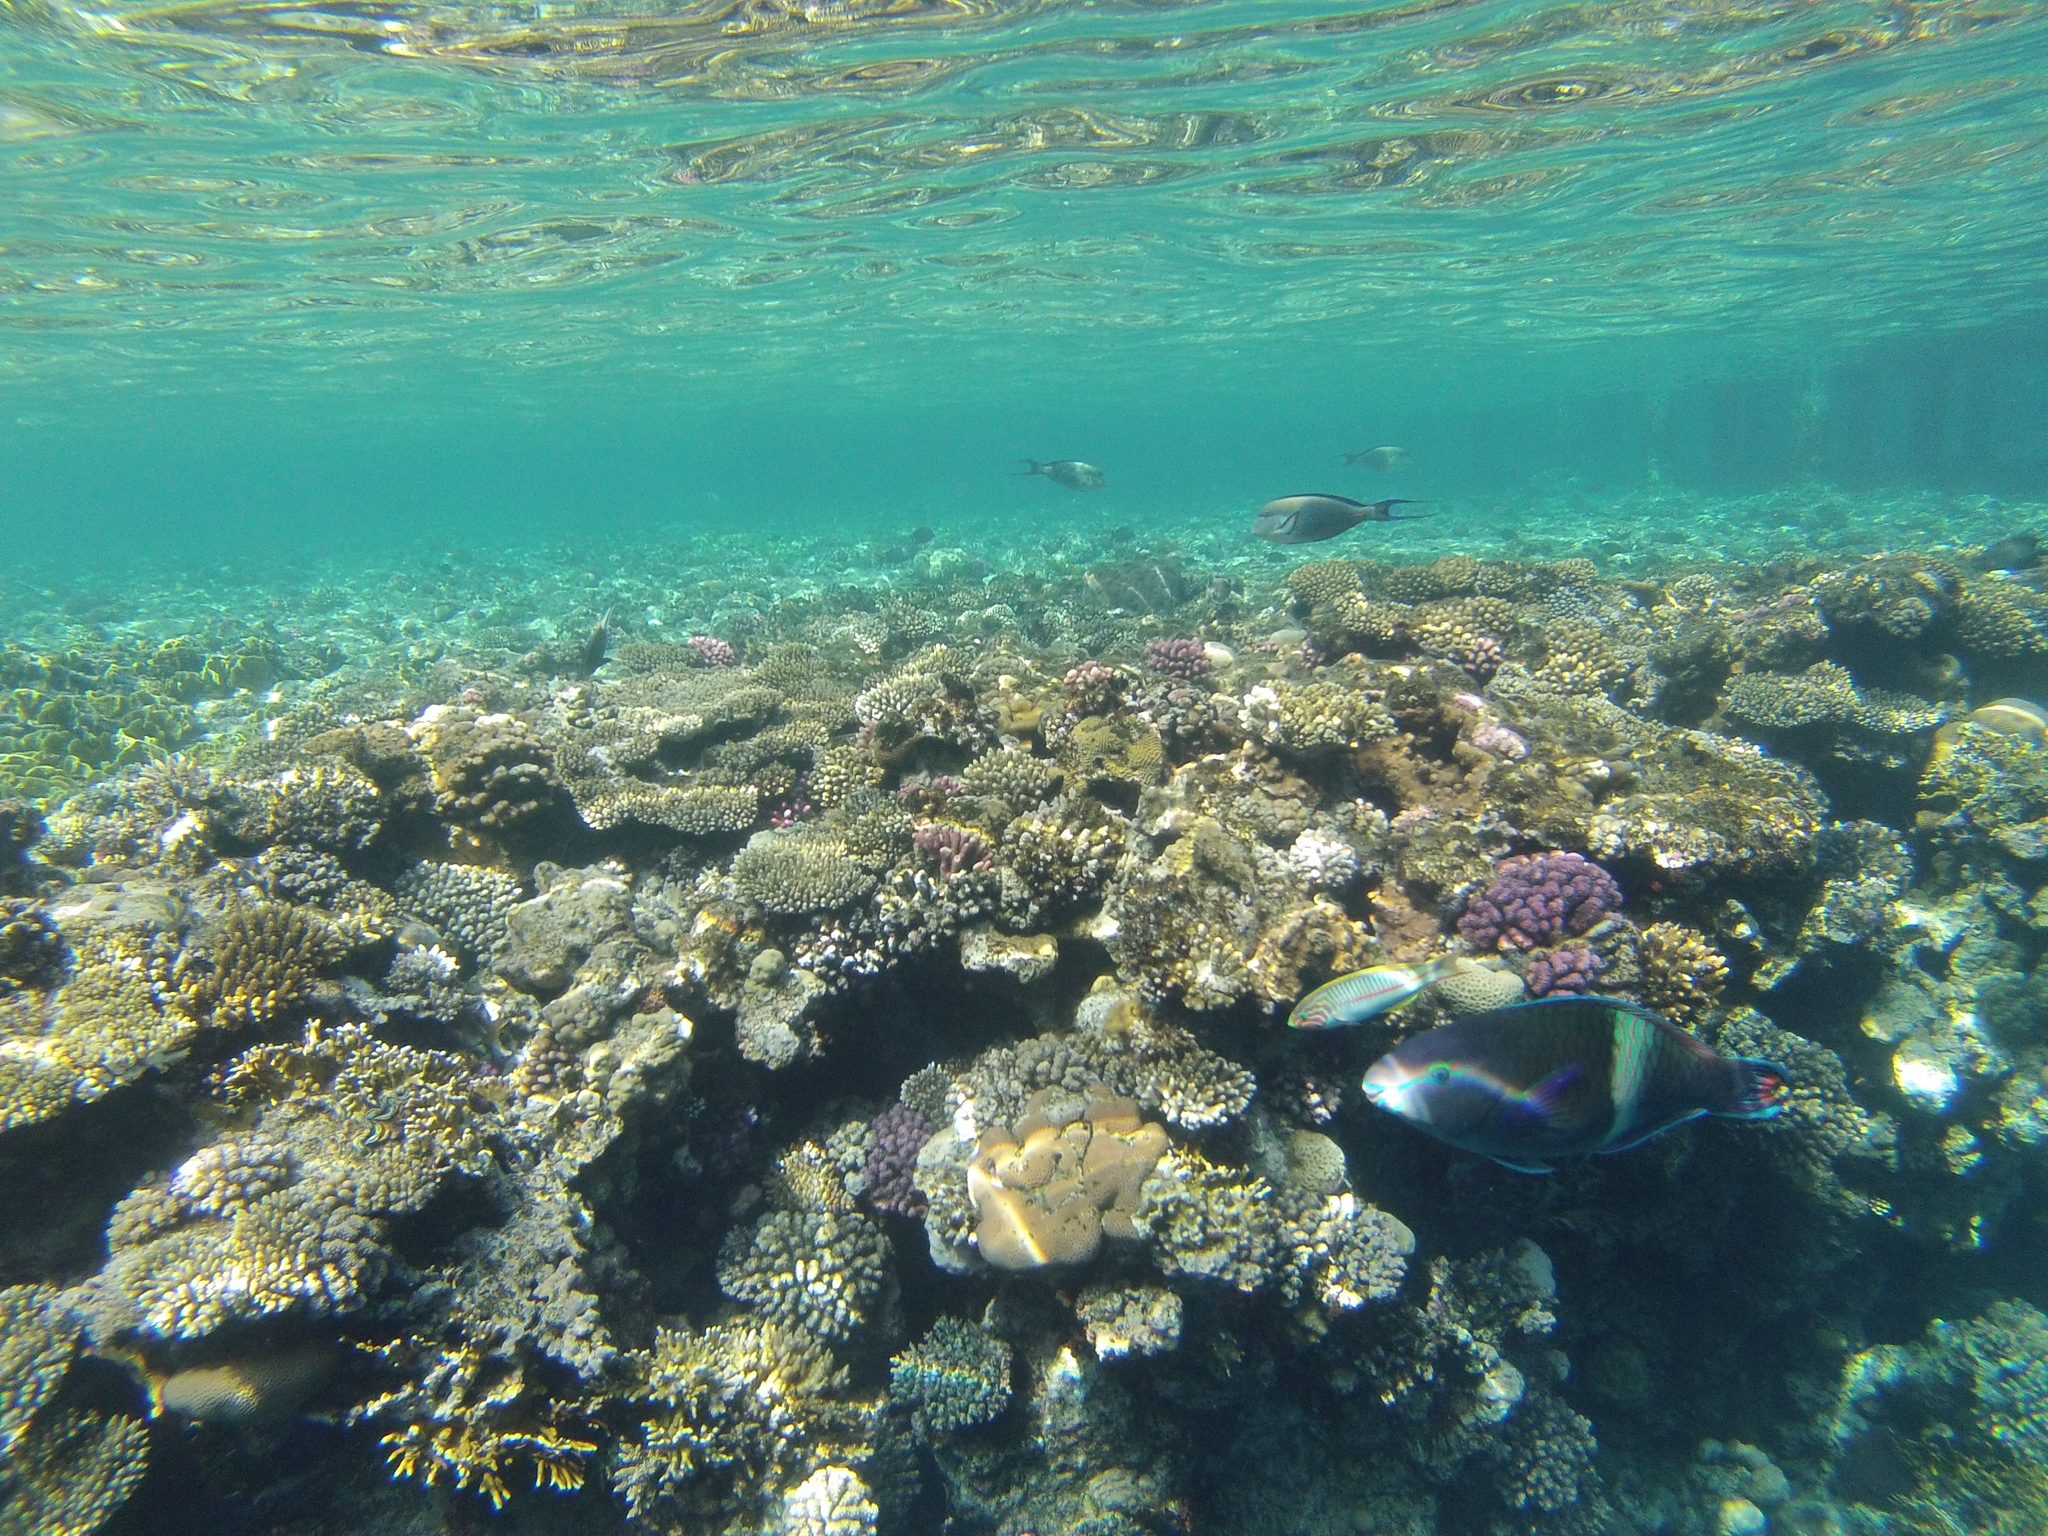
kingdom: Animalia
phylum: Chordata
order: Perciformes
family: Scaridae
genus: Scarus
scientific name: Scarus fuscopurpureus
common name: Purple-brown parrotfish
